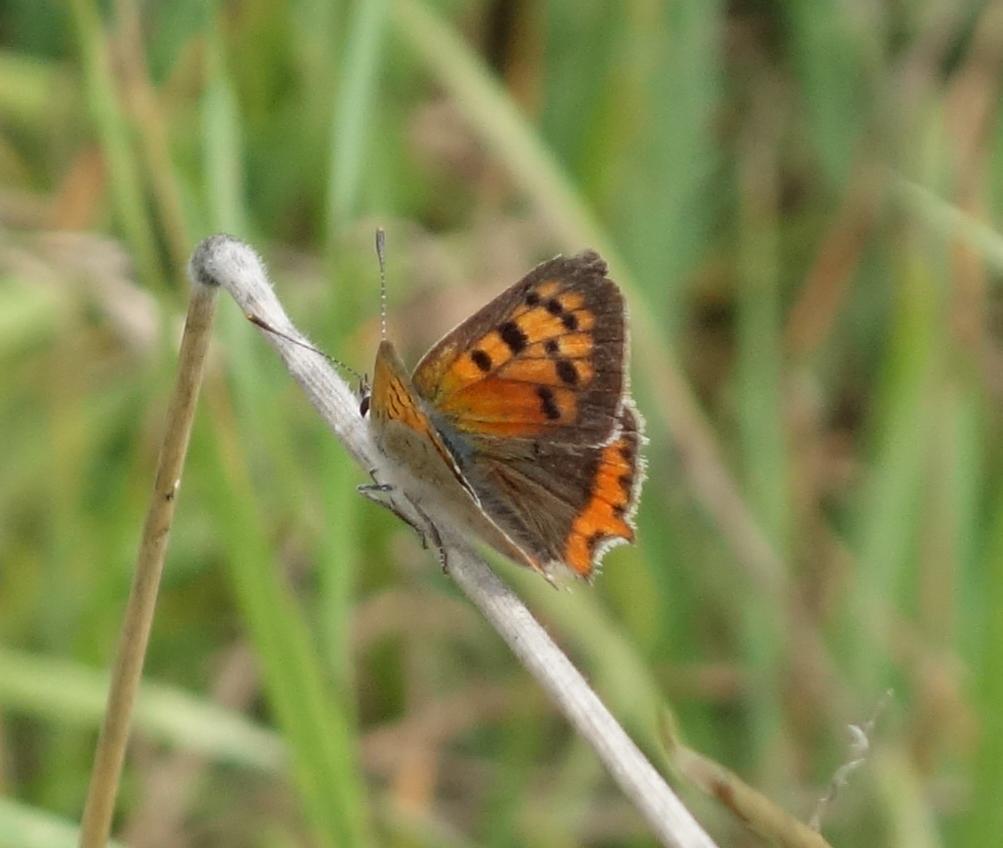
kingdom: Animalia
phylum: Arthropoda
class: Insecta
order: Lepidoptera
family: Lycaenidae
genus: Lycaena
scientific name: Lycaena phlaeas
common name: Small copper
